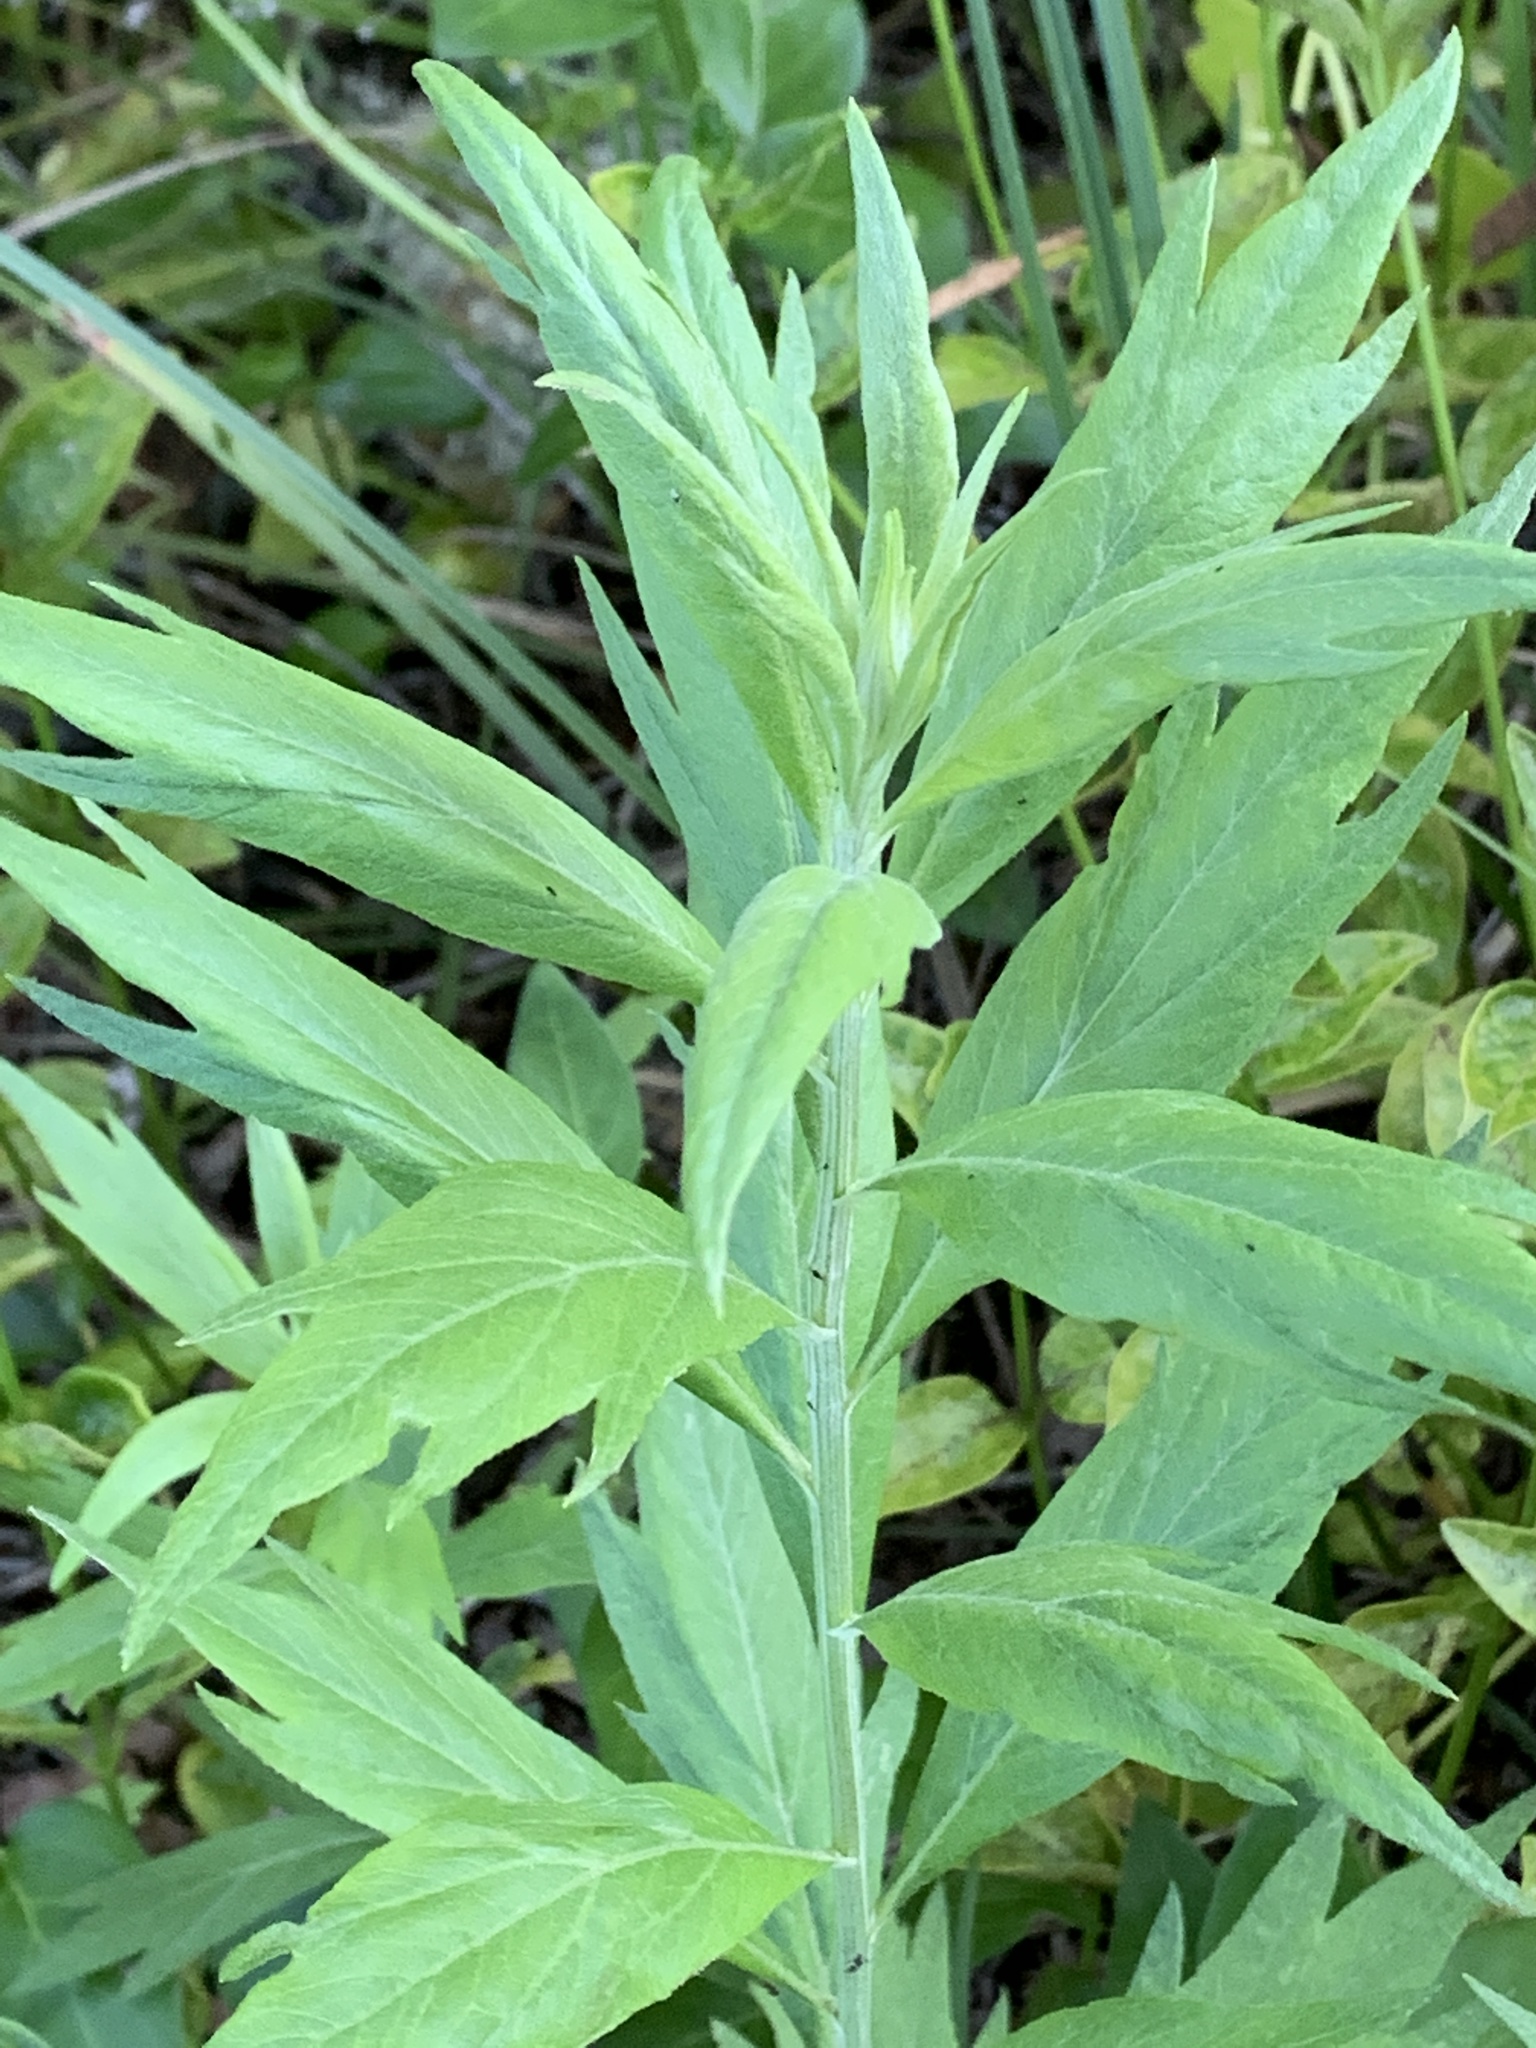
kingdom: Plantae
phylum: Tracheophyta
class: Magnoliopsida
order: Asterales
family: Asteraceae
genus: Artemisia
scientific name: Artemisia douglasiana
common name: Northwest mugwort
